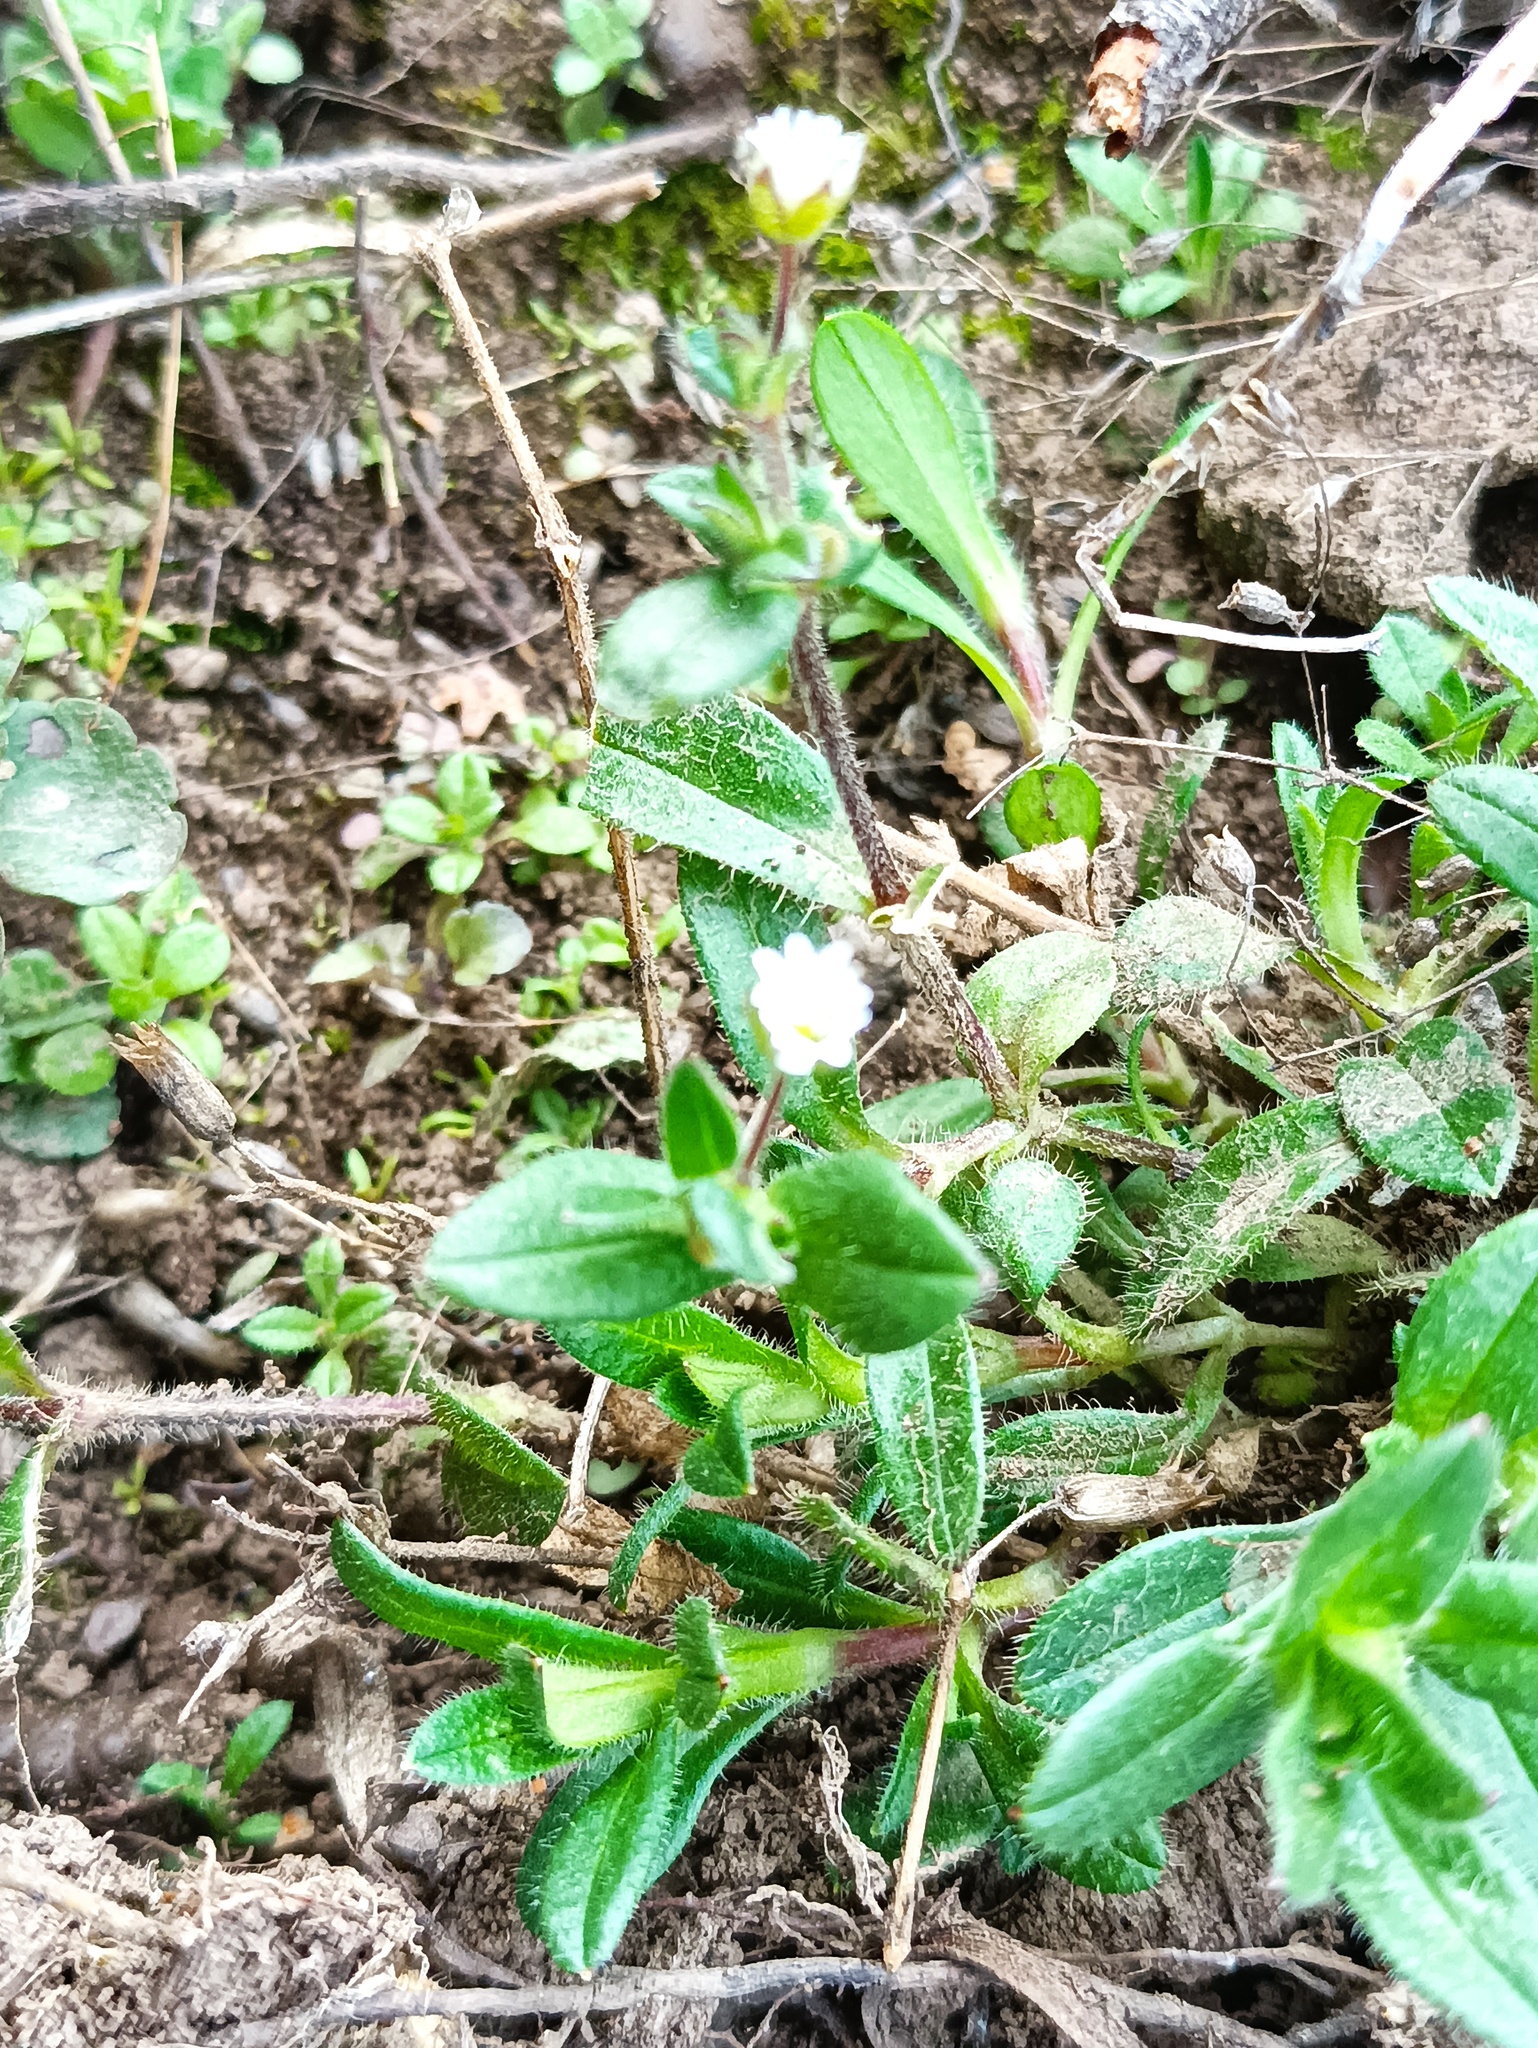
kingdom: Plantae
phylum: Tracheophyta
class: Magnoliopsida
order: Caryophyllales
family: Caryophyllaceae
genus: Cerastium
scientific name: Cerastium holosteoides
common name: Big chickweed
